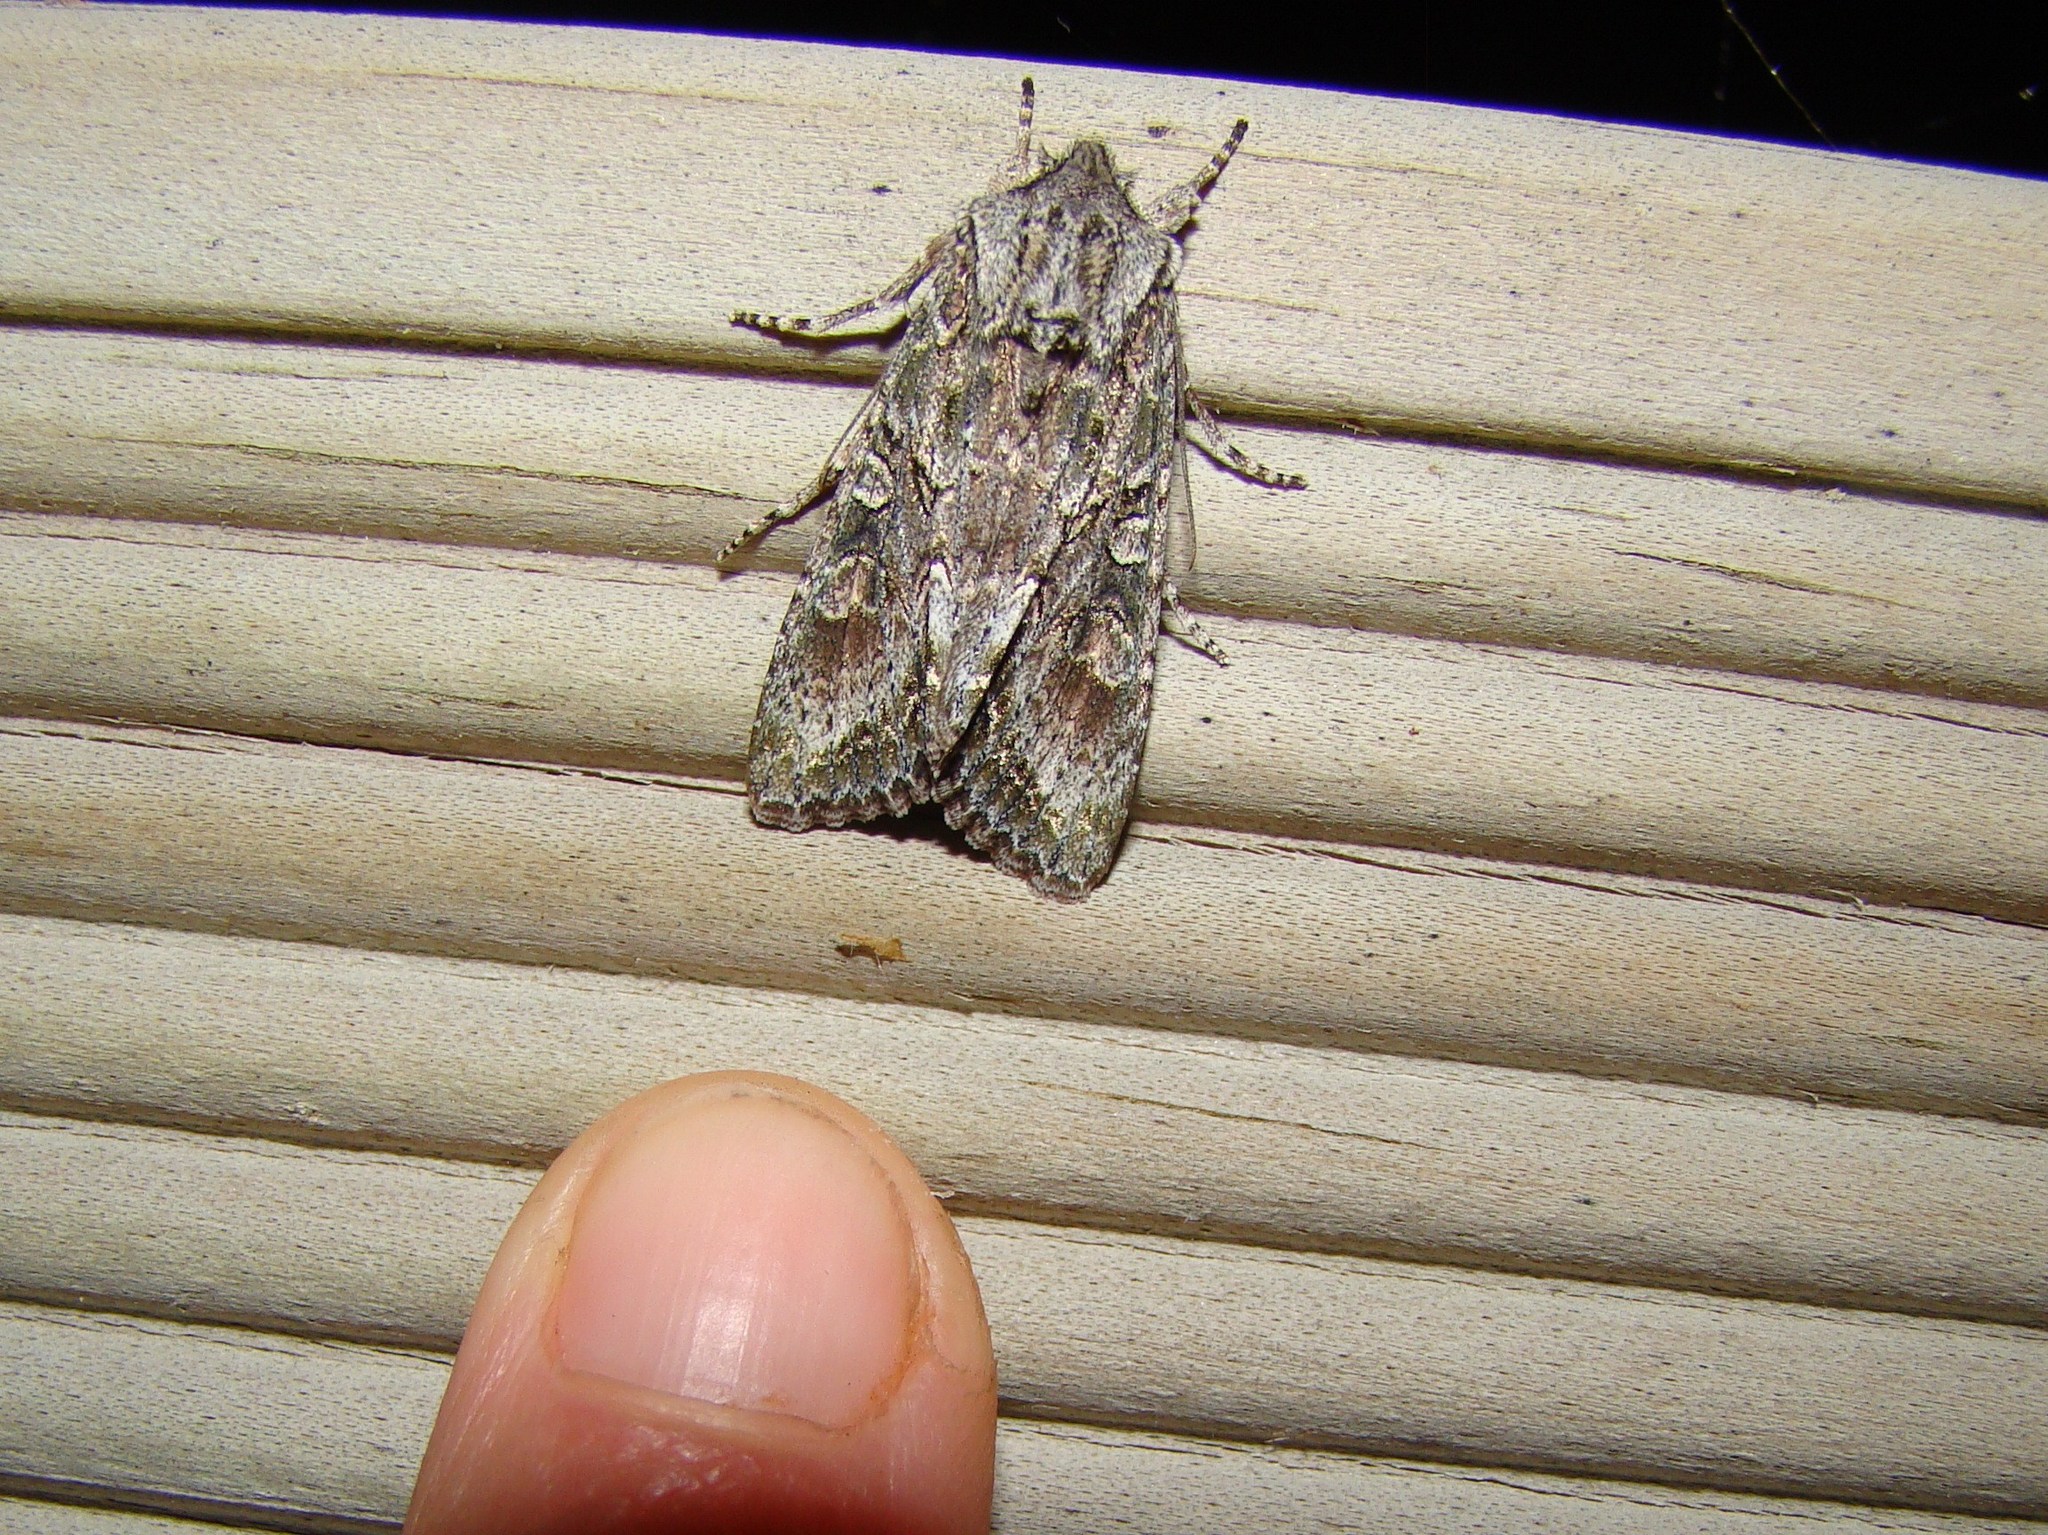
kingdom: Animalia
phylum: Arthropoda
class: Insecta
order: Lepidoptera
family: Noctuidae
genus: Ichneutica
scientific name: Ichneutica mutans
